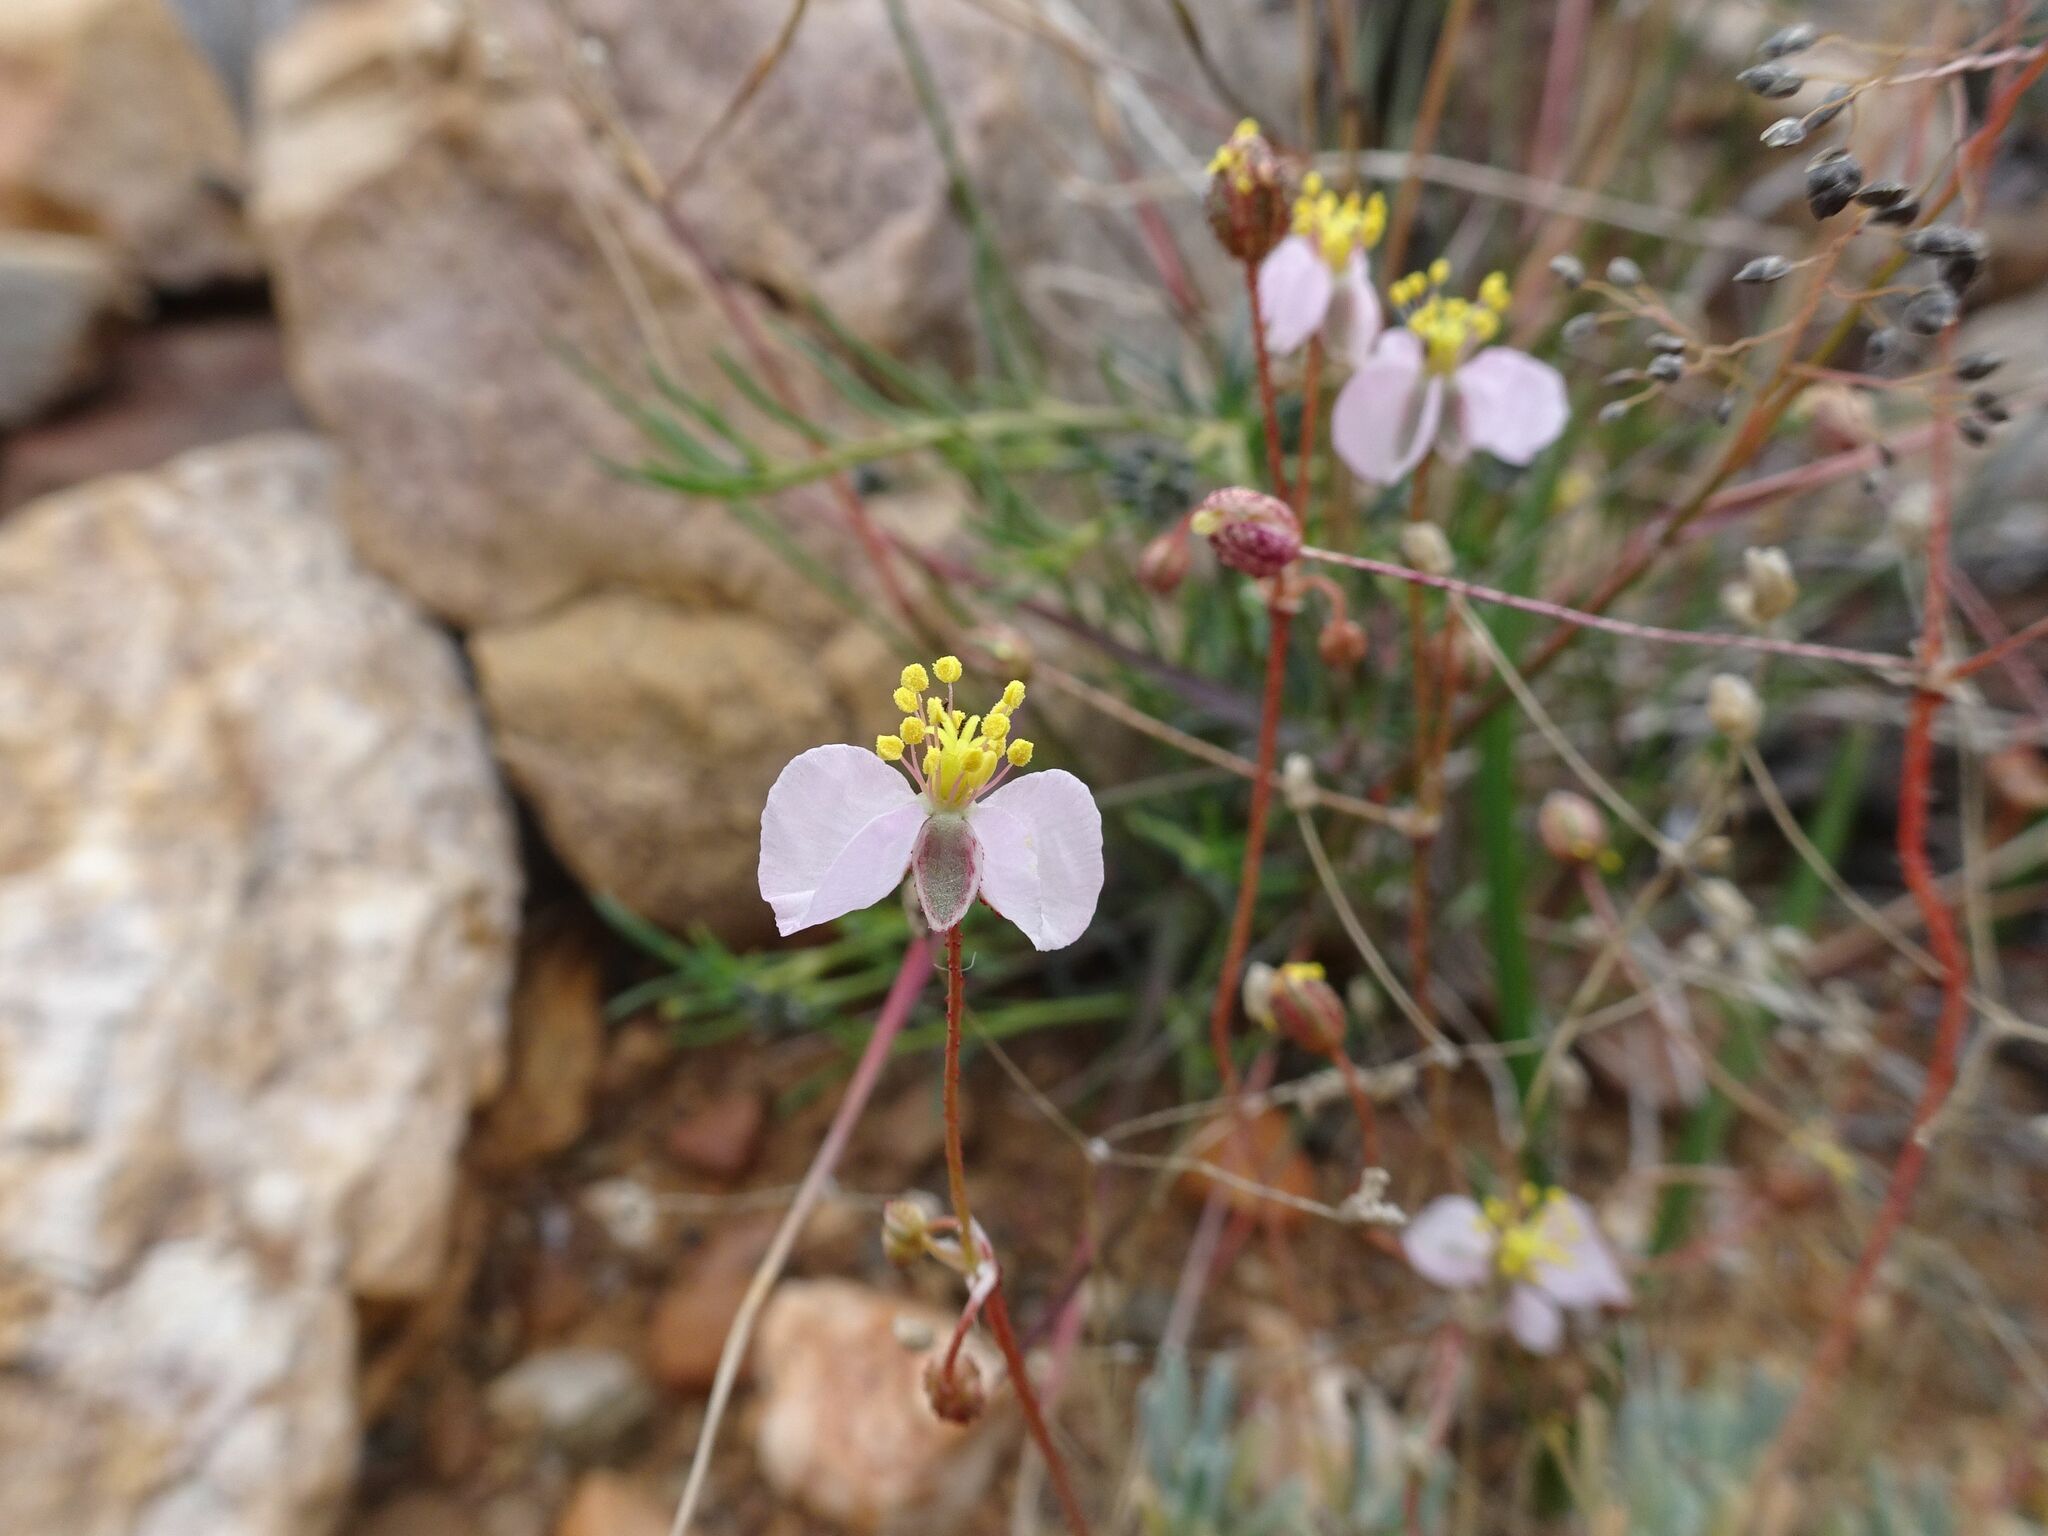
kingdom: Plantae
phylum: Tracheophyta
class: Magnoliopsida
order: Caryophyllales
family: Kewaceae
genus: Kewa
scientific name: Kewa salsoloides
